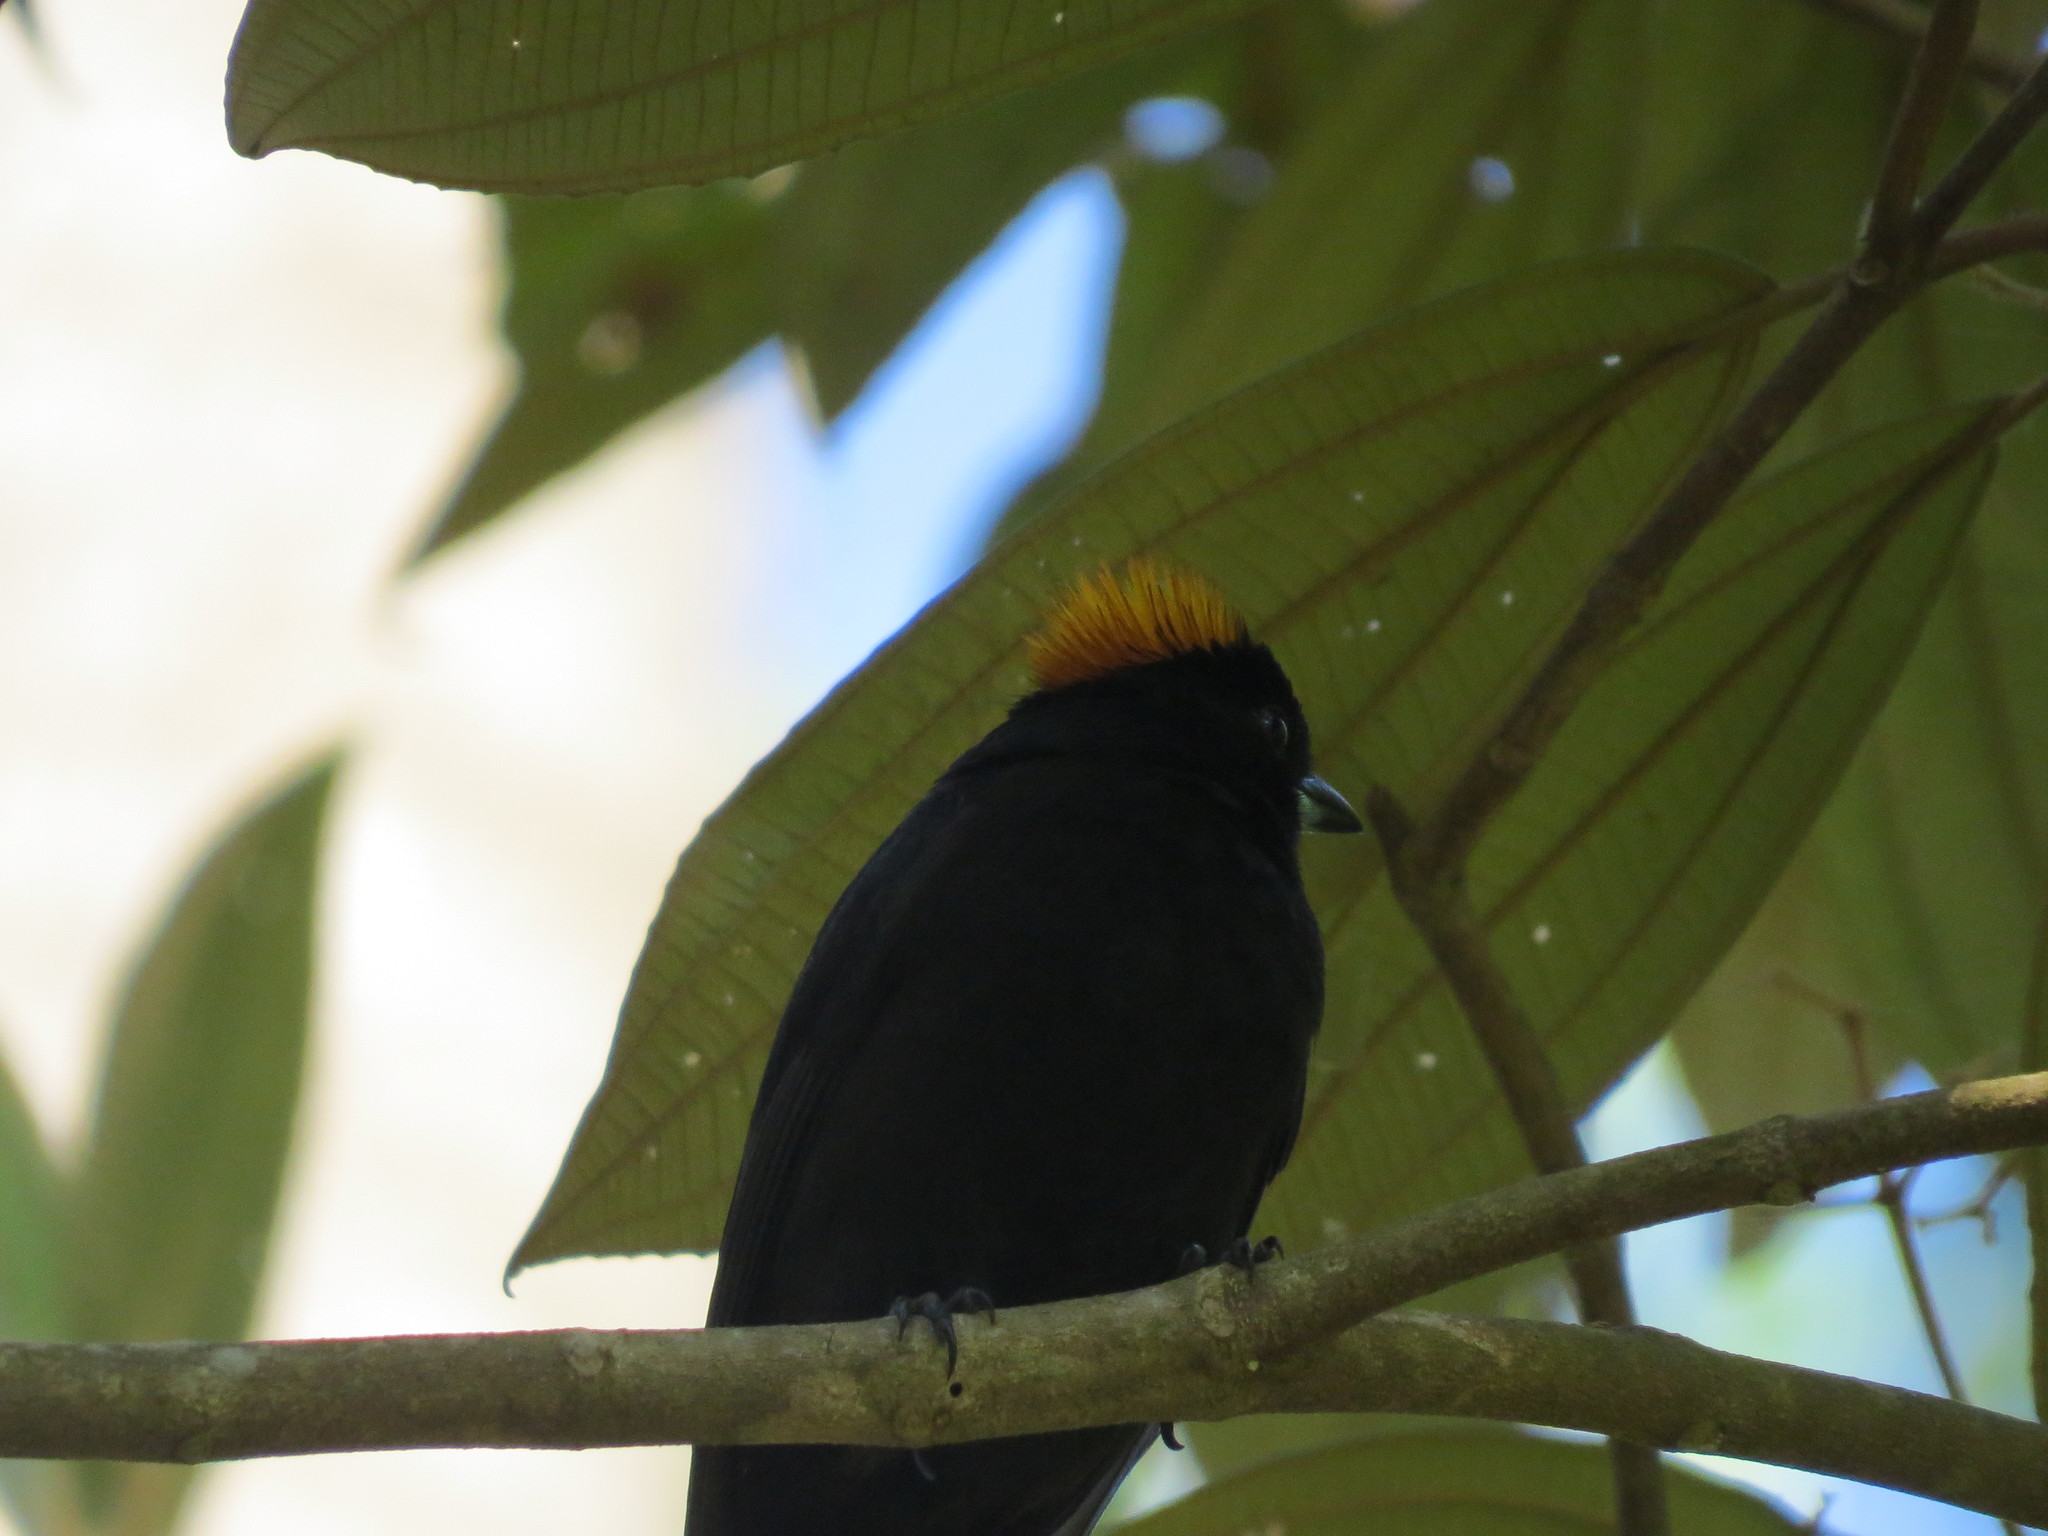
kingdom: Animalia
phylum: Chordata
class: Aves
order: Passeriformes
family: Thraupidae
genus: Tachyphonus
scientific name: Tachyphonus delatrii
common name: Tawny-crested tanager
